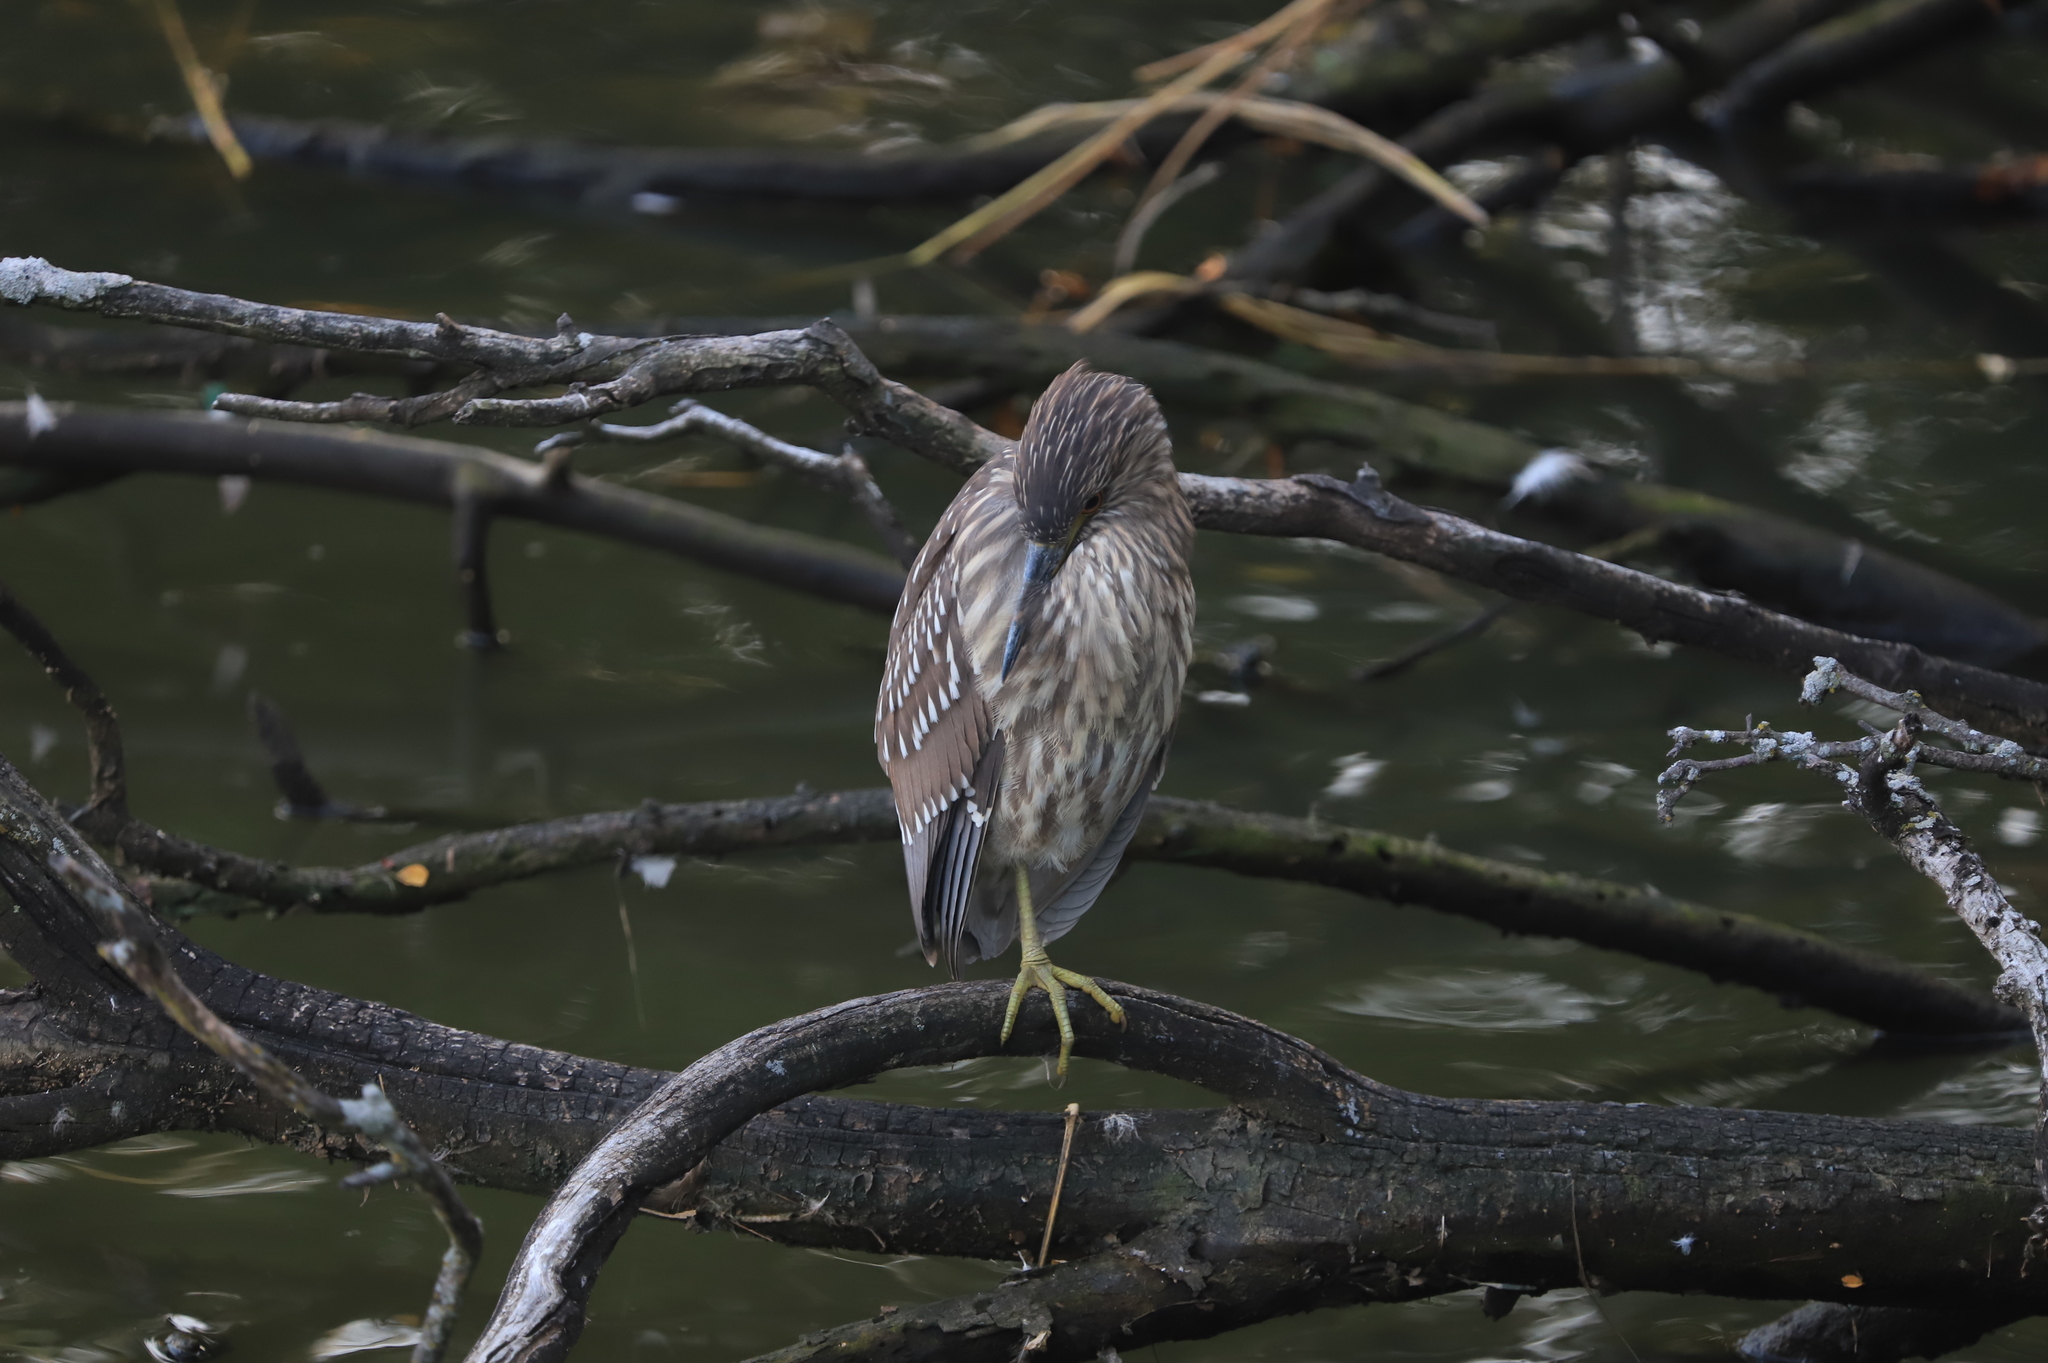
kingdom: Animalia
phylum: Chordata
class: Aves
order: Pelecaniformes
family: Ardeidae
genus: Nycticorax
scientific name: Nycticorax nycticorax
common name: Black-crowned night heron
